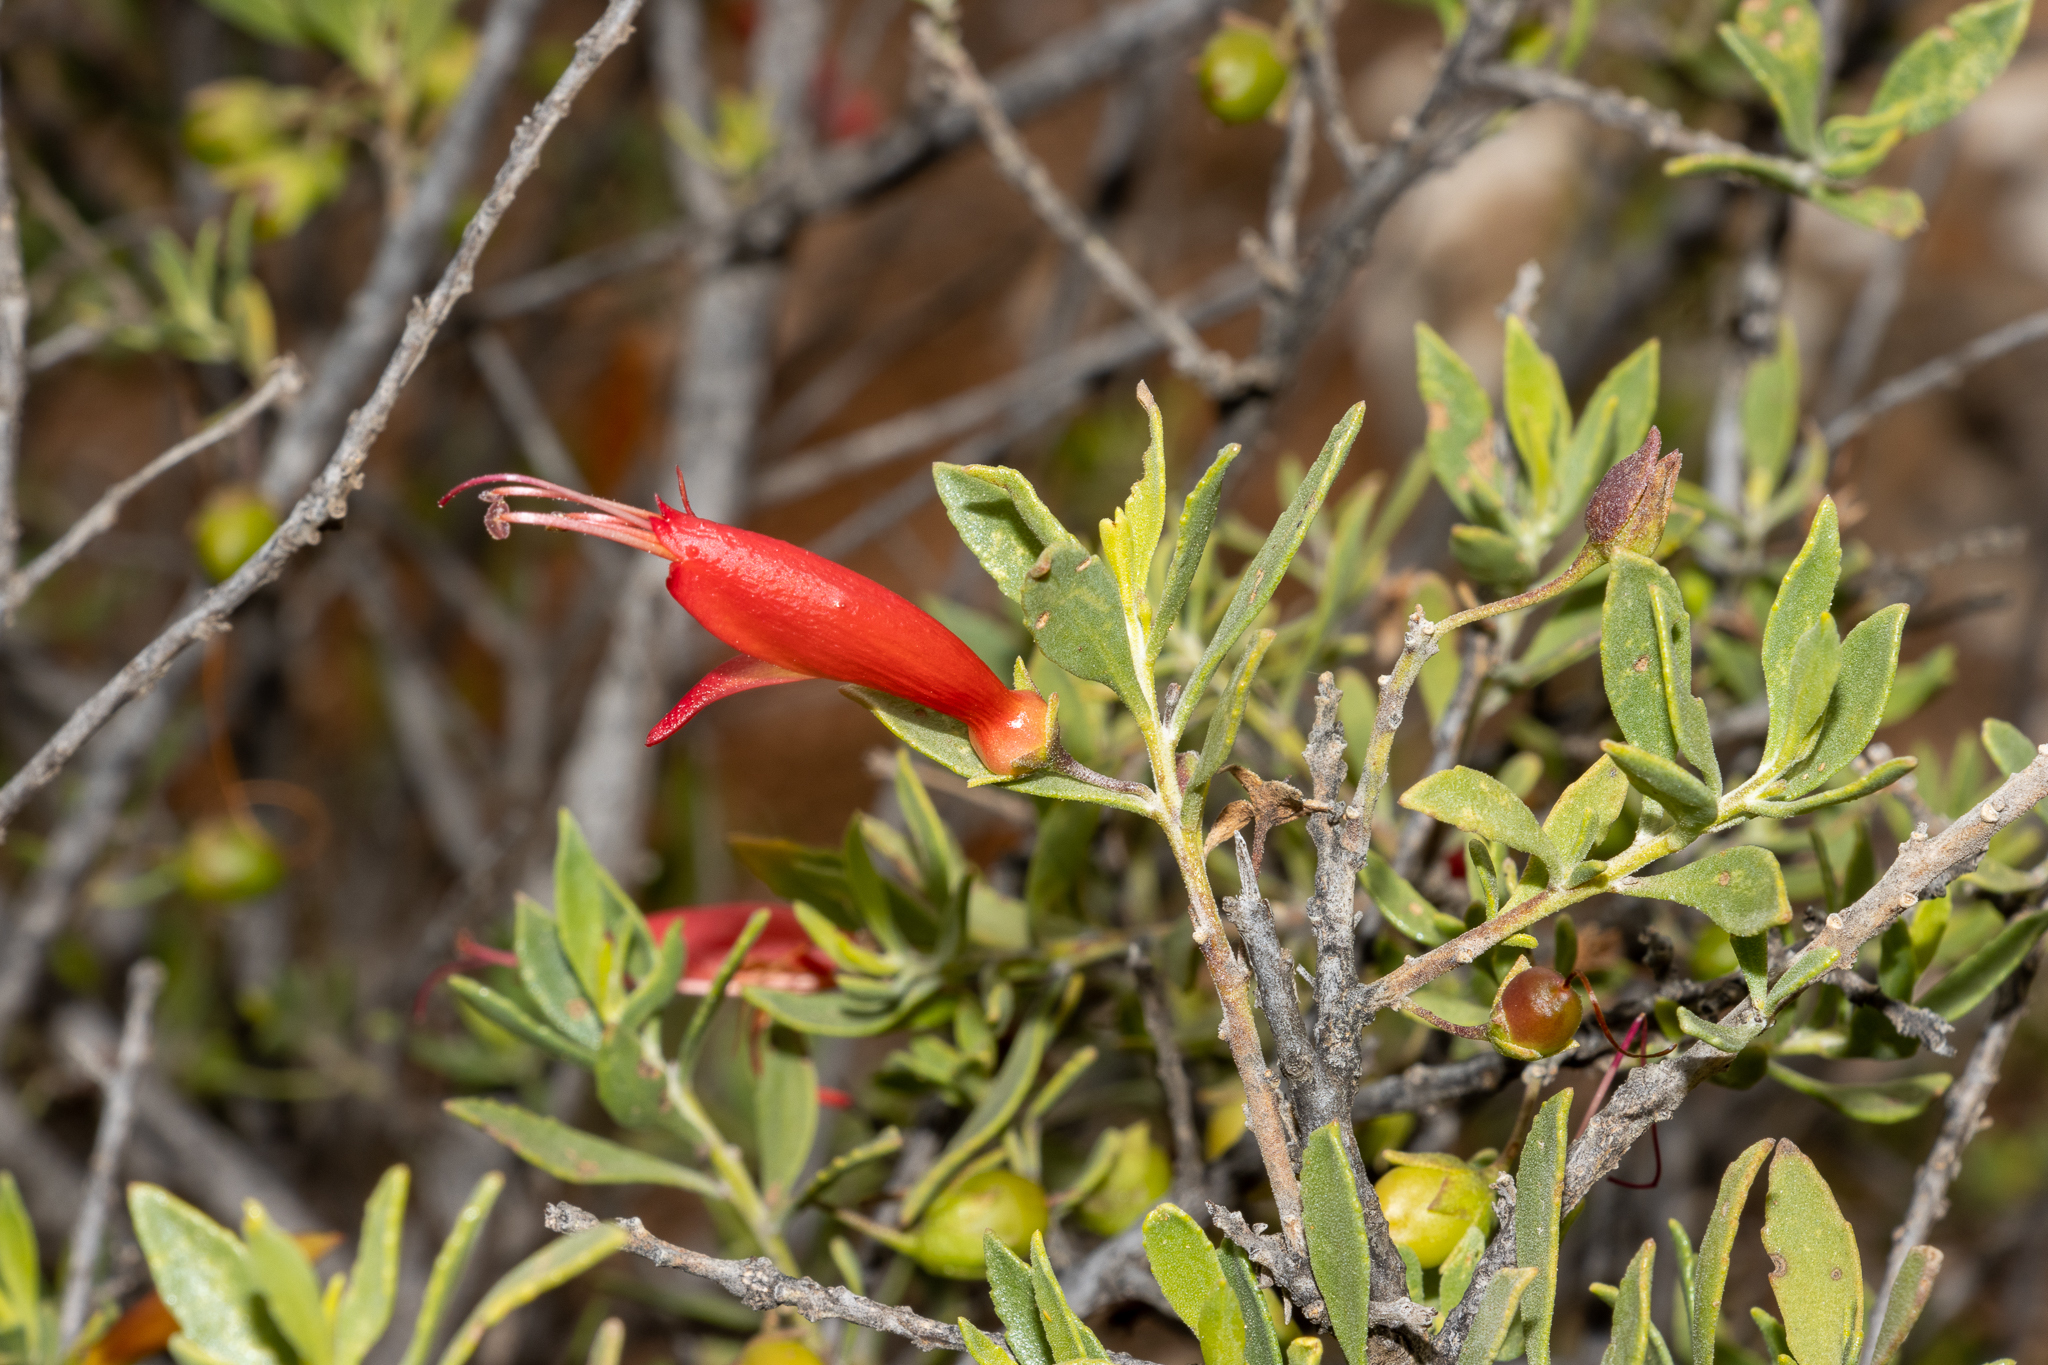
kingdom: Plantae
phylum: Tracheophyta
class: Magnoliopsida
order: Lamiales
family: Scrophulariaceae
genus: Eremophila
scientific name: Eremophila glabra
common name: Black-fuchsia
